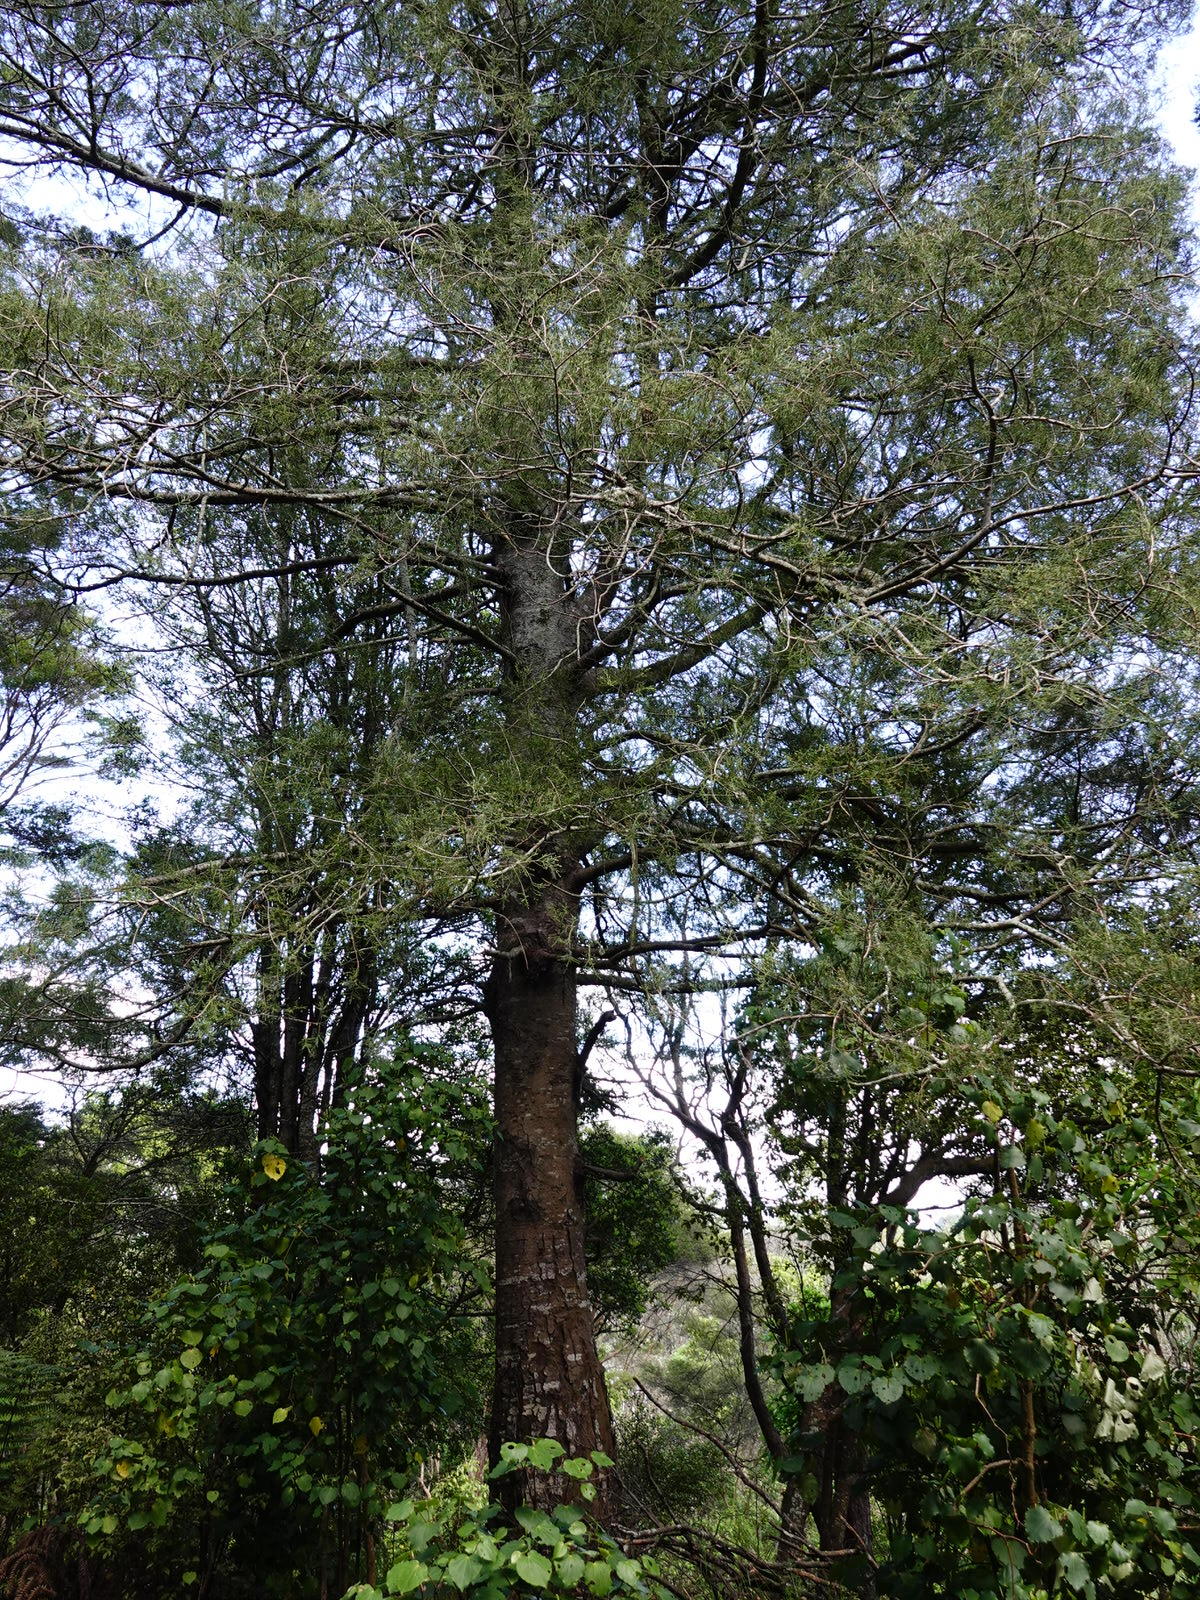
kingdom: Plantae
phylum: Tracheophyta
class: Pinopsida
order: Pinales
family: Podocarpaceae
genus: Dacrycarpus
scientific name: Dacrycarpus dacrydioides
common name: White pine
